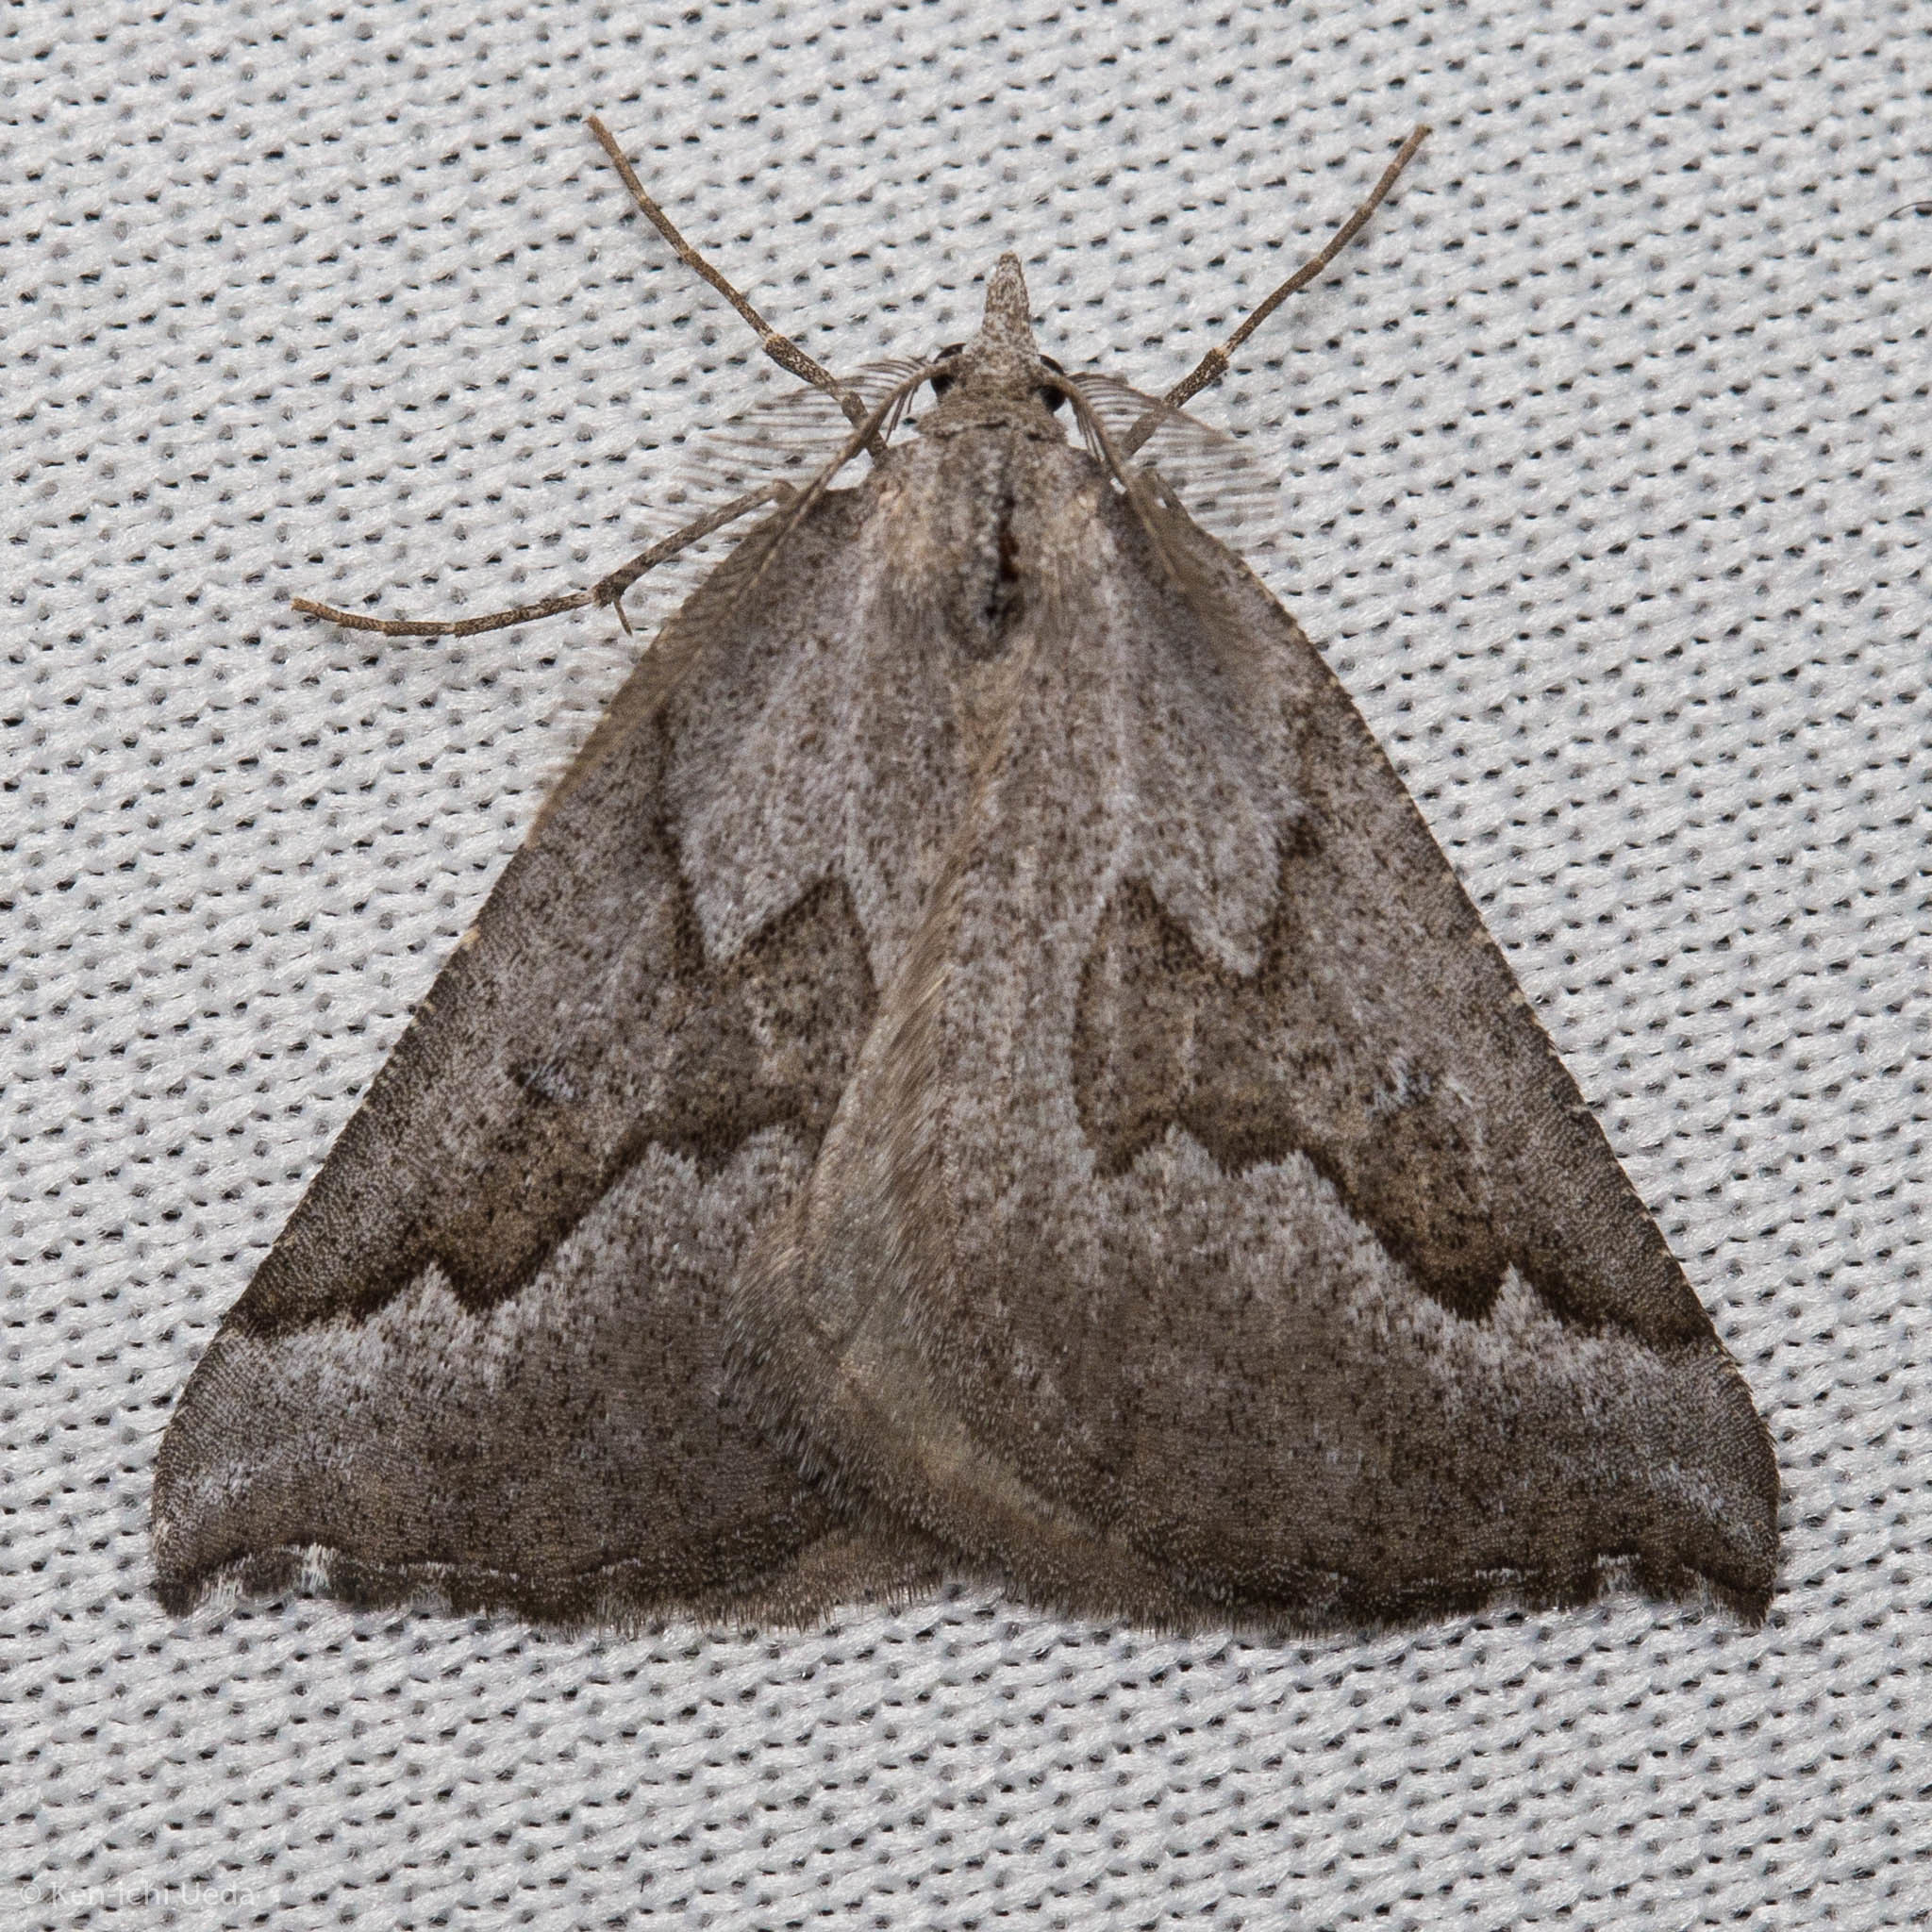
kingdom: Animalia
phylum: Arthropoda
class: Insecta
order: Lepidoptera
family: Geometridae
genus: Plataea
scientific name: Plataea personaria
